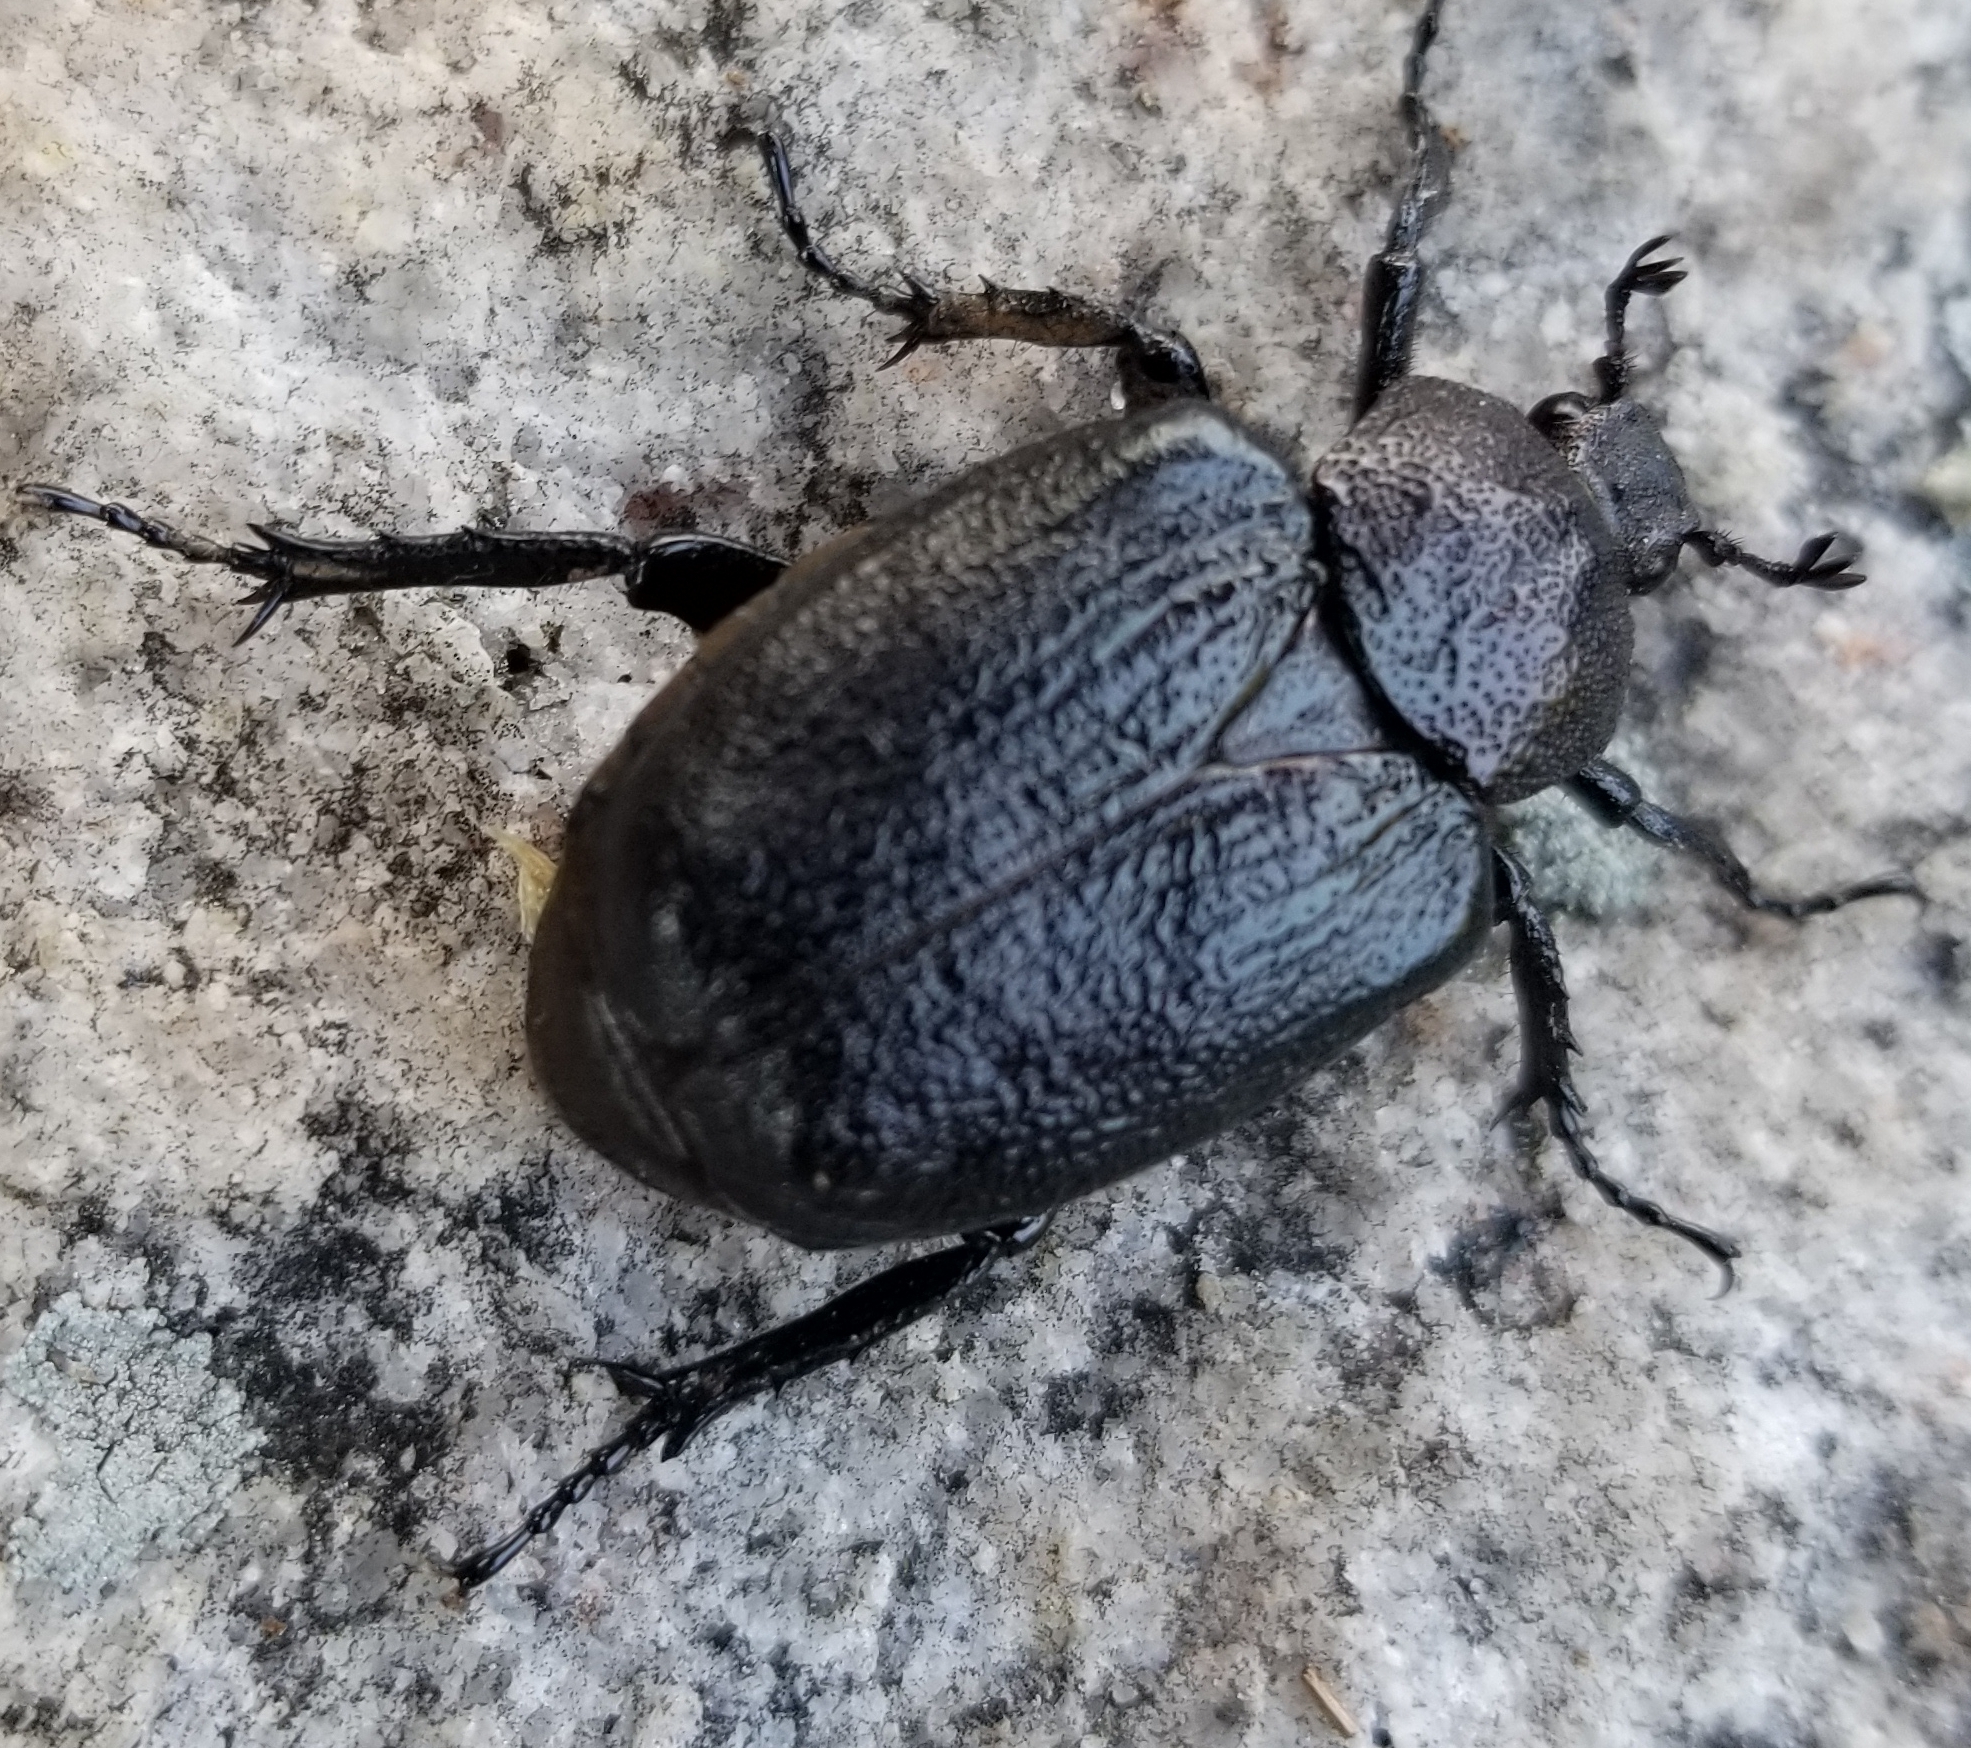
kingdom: Animalia
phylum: Arthropoda
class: Insecta
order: Coleoptera
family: Scarabaeidae
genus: Osmoderma
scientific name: Osmoderma scabra
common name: Rough hermit beetle
